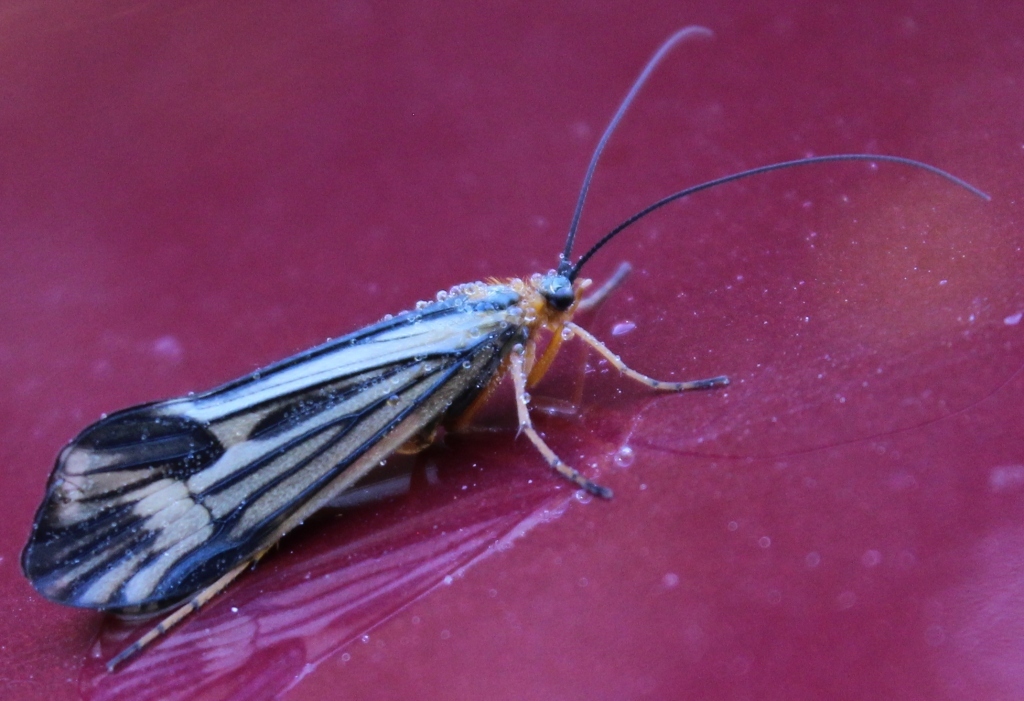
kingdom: Animalia
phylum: Arthropoda
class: Insecta
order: Trichoptera
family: Limnephilidae
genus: Halesochila
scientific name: Halesochila taylori
